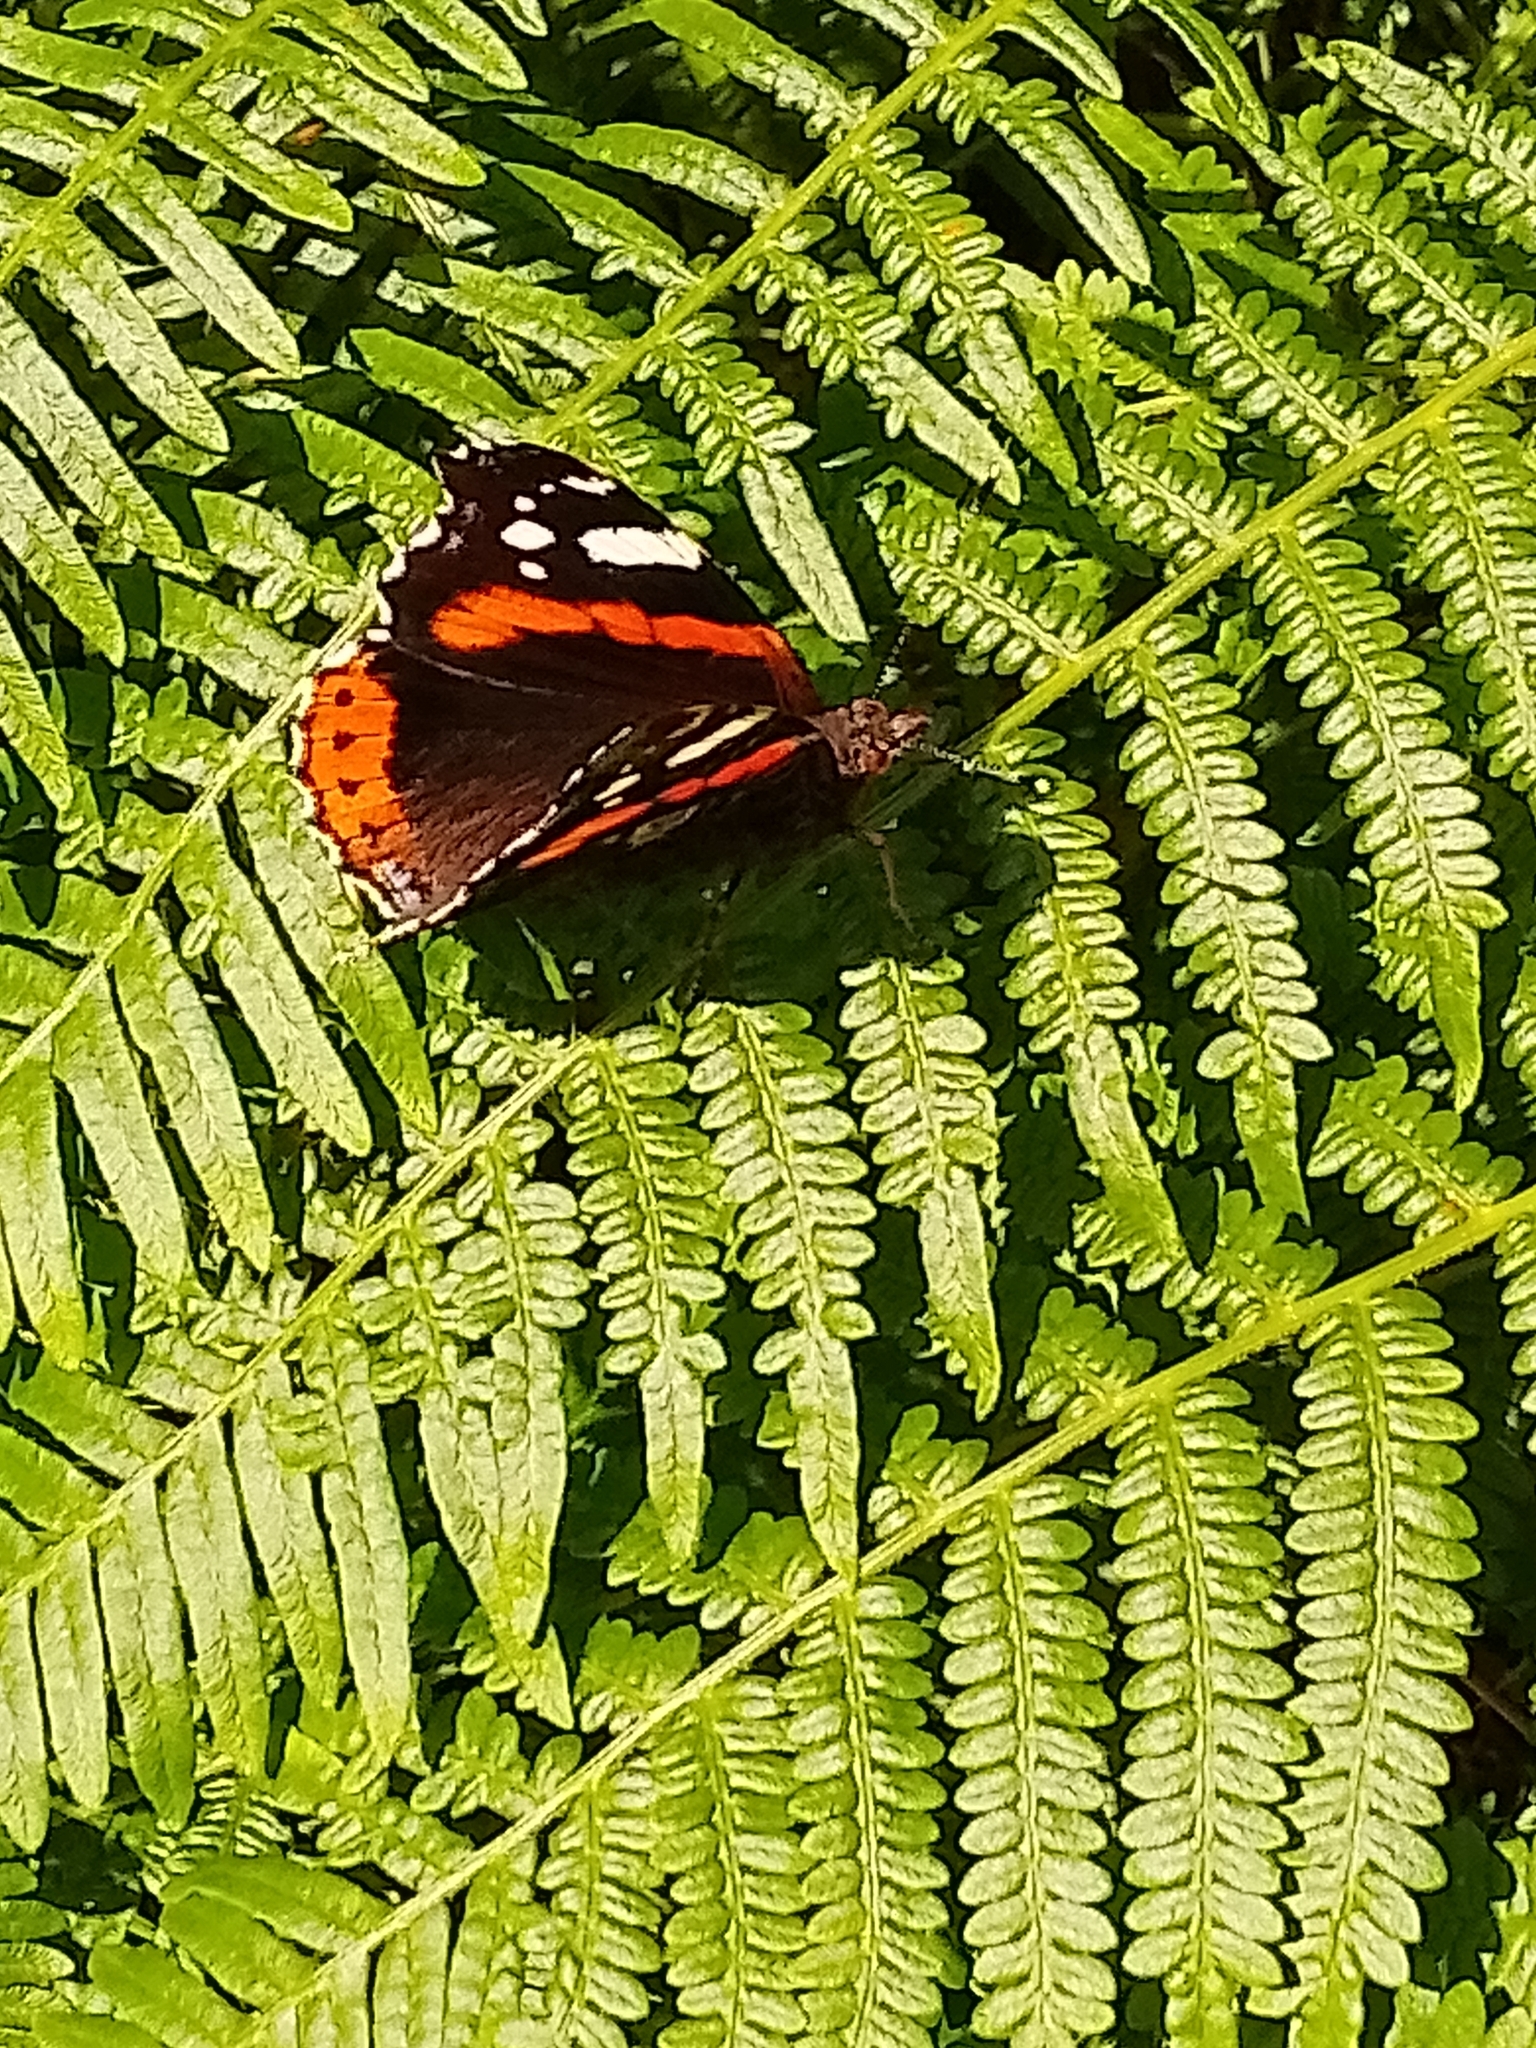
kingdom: Animalia
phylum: Arthropoda
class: Insecta
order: Lepidoptera
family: Nymphalidae
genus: Vanessa
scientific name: Vanessa atalanta
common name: Red admiral
